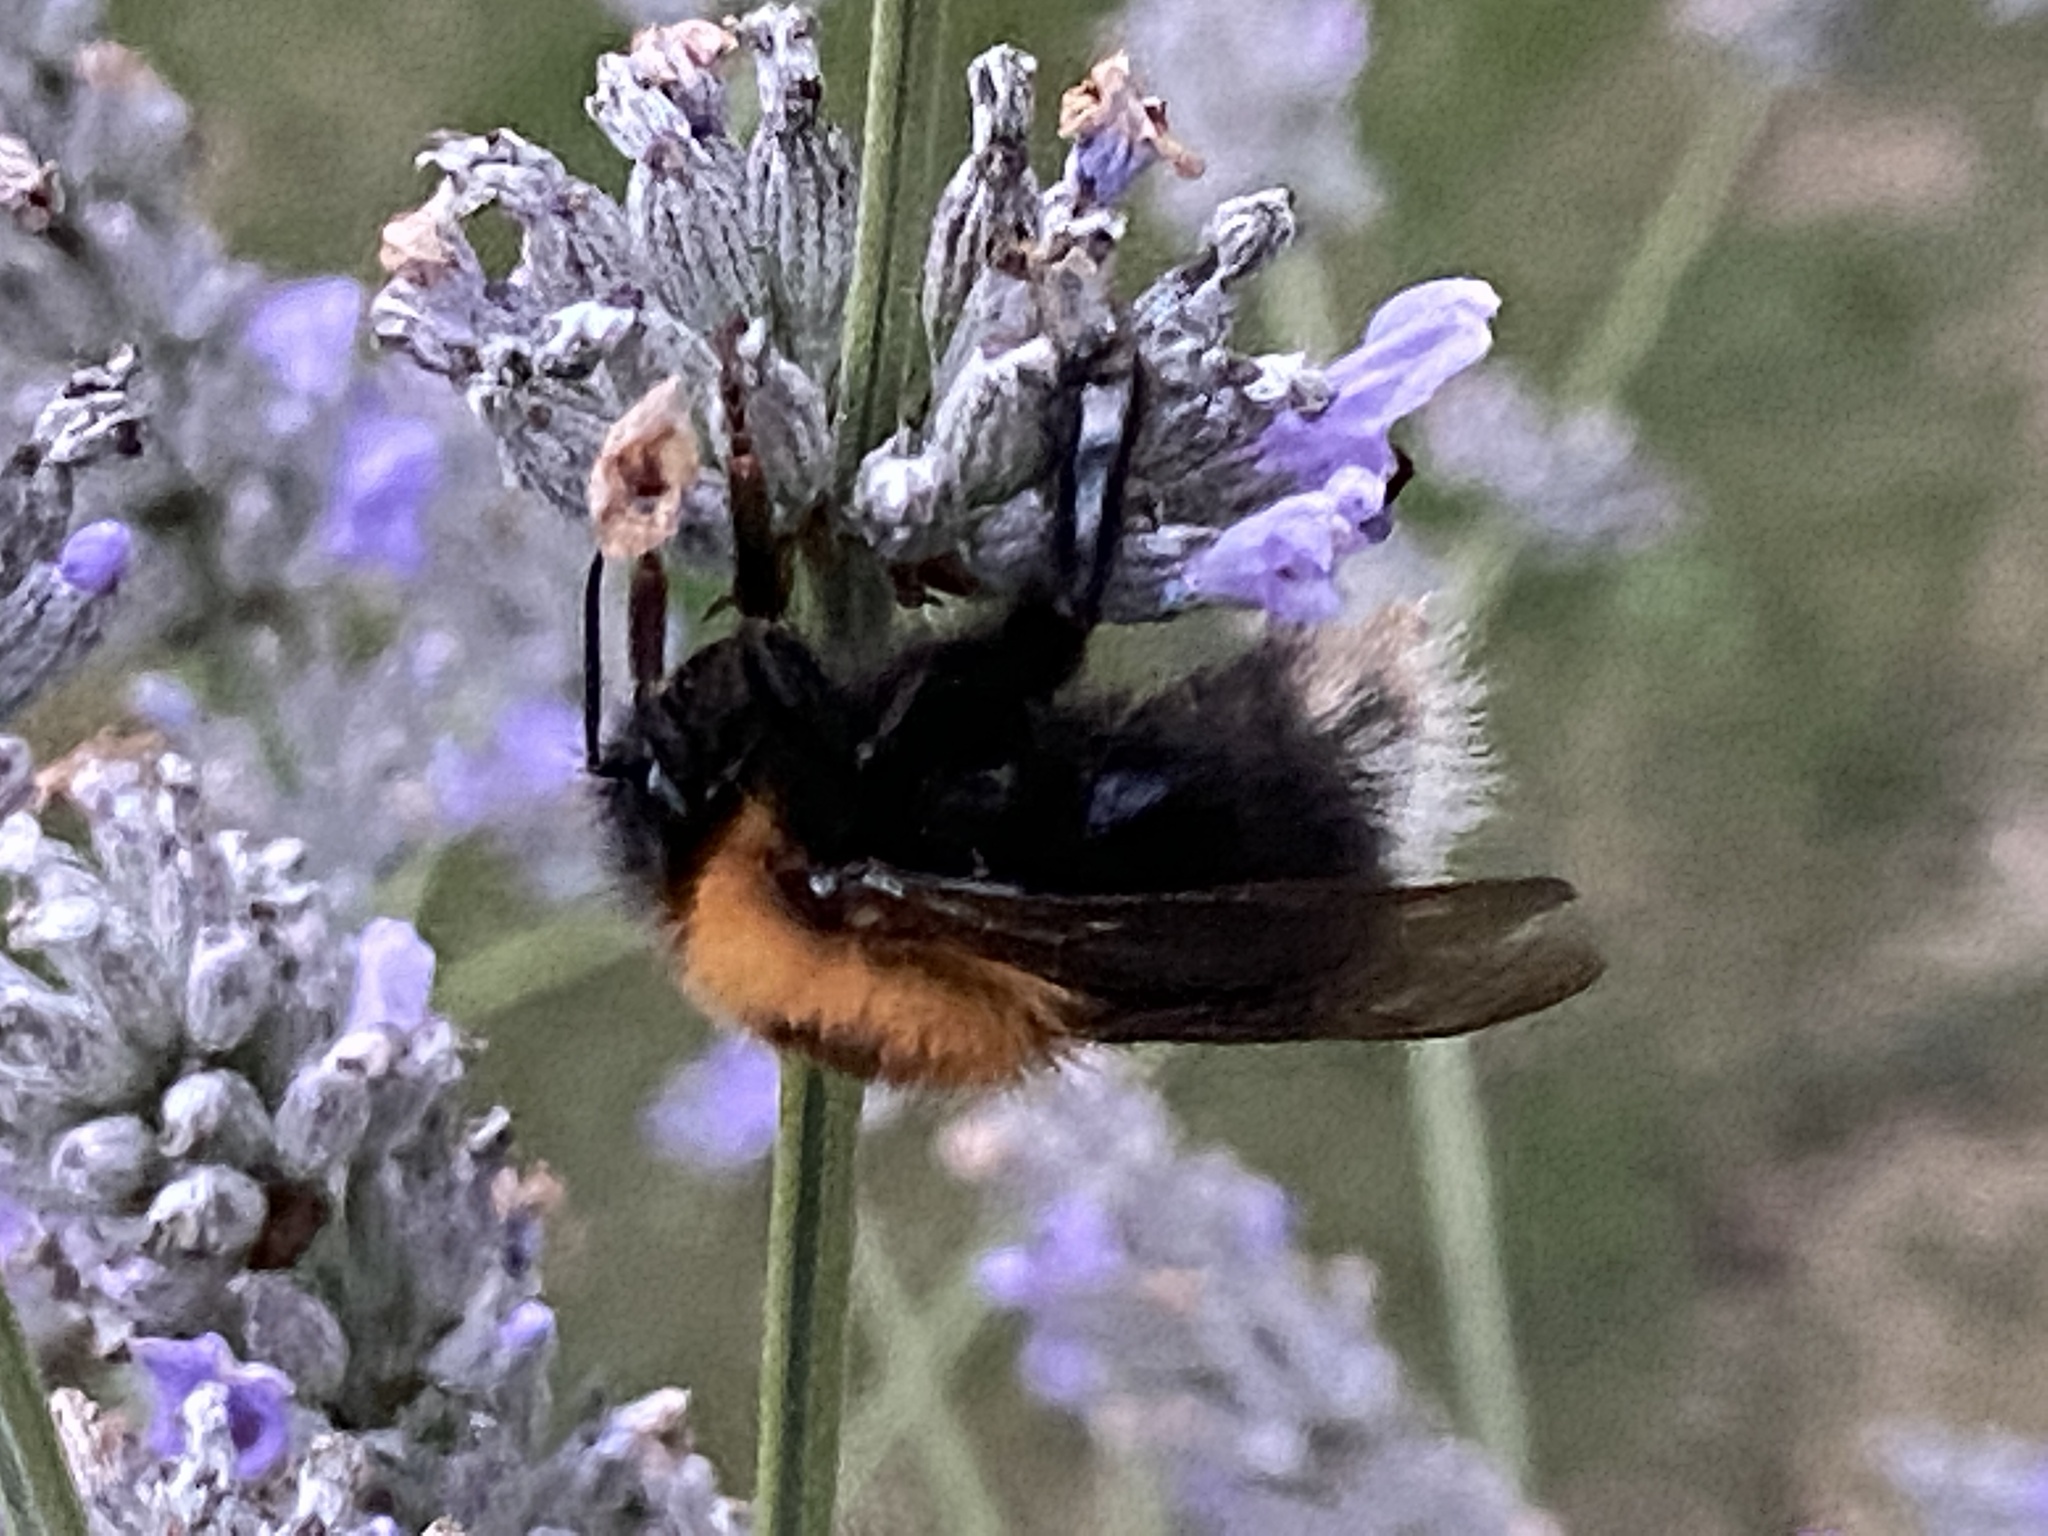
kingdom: Animalia
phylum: Arthropoda
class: Insecta
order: Hymenoptera
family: Apidae
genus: Bombus
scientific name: Bombus hypnorum
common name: New garden bumblebee
